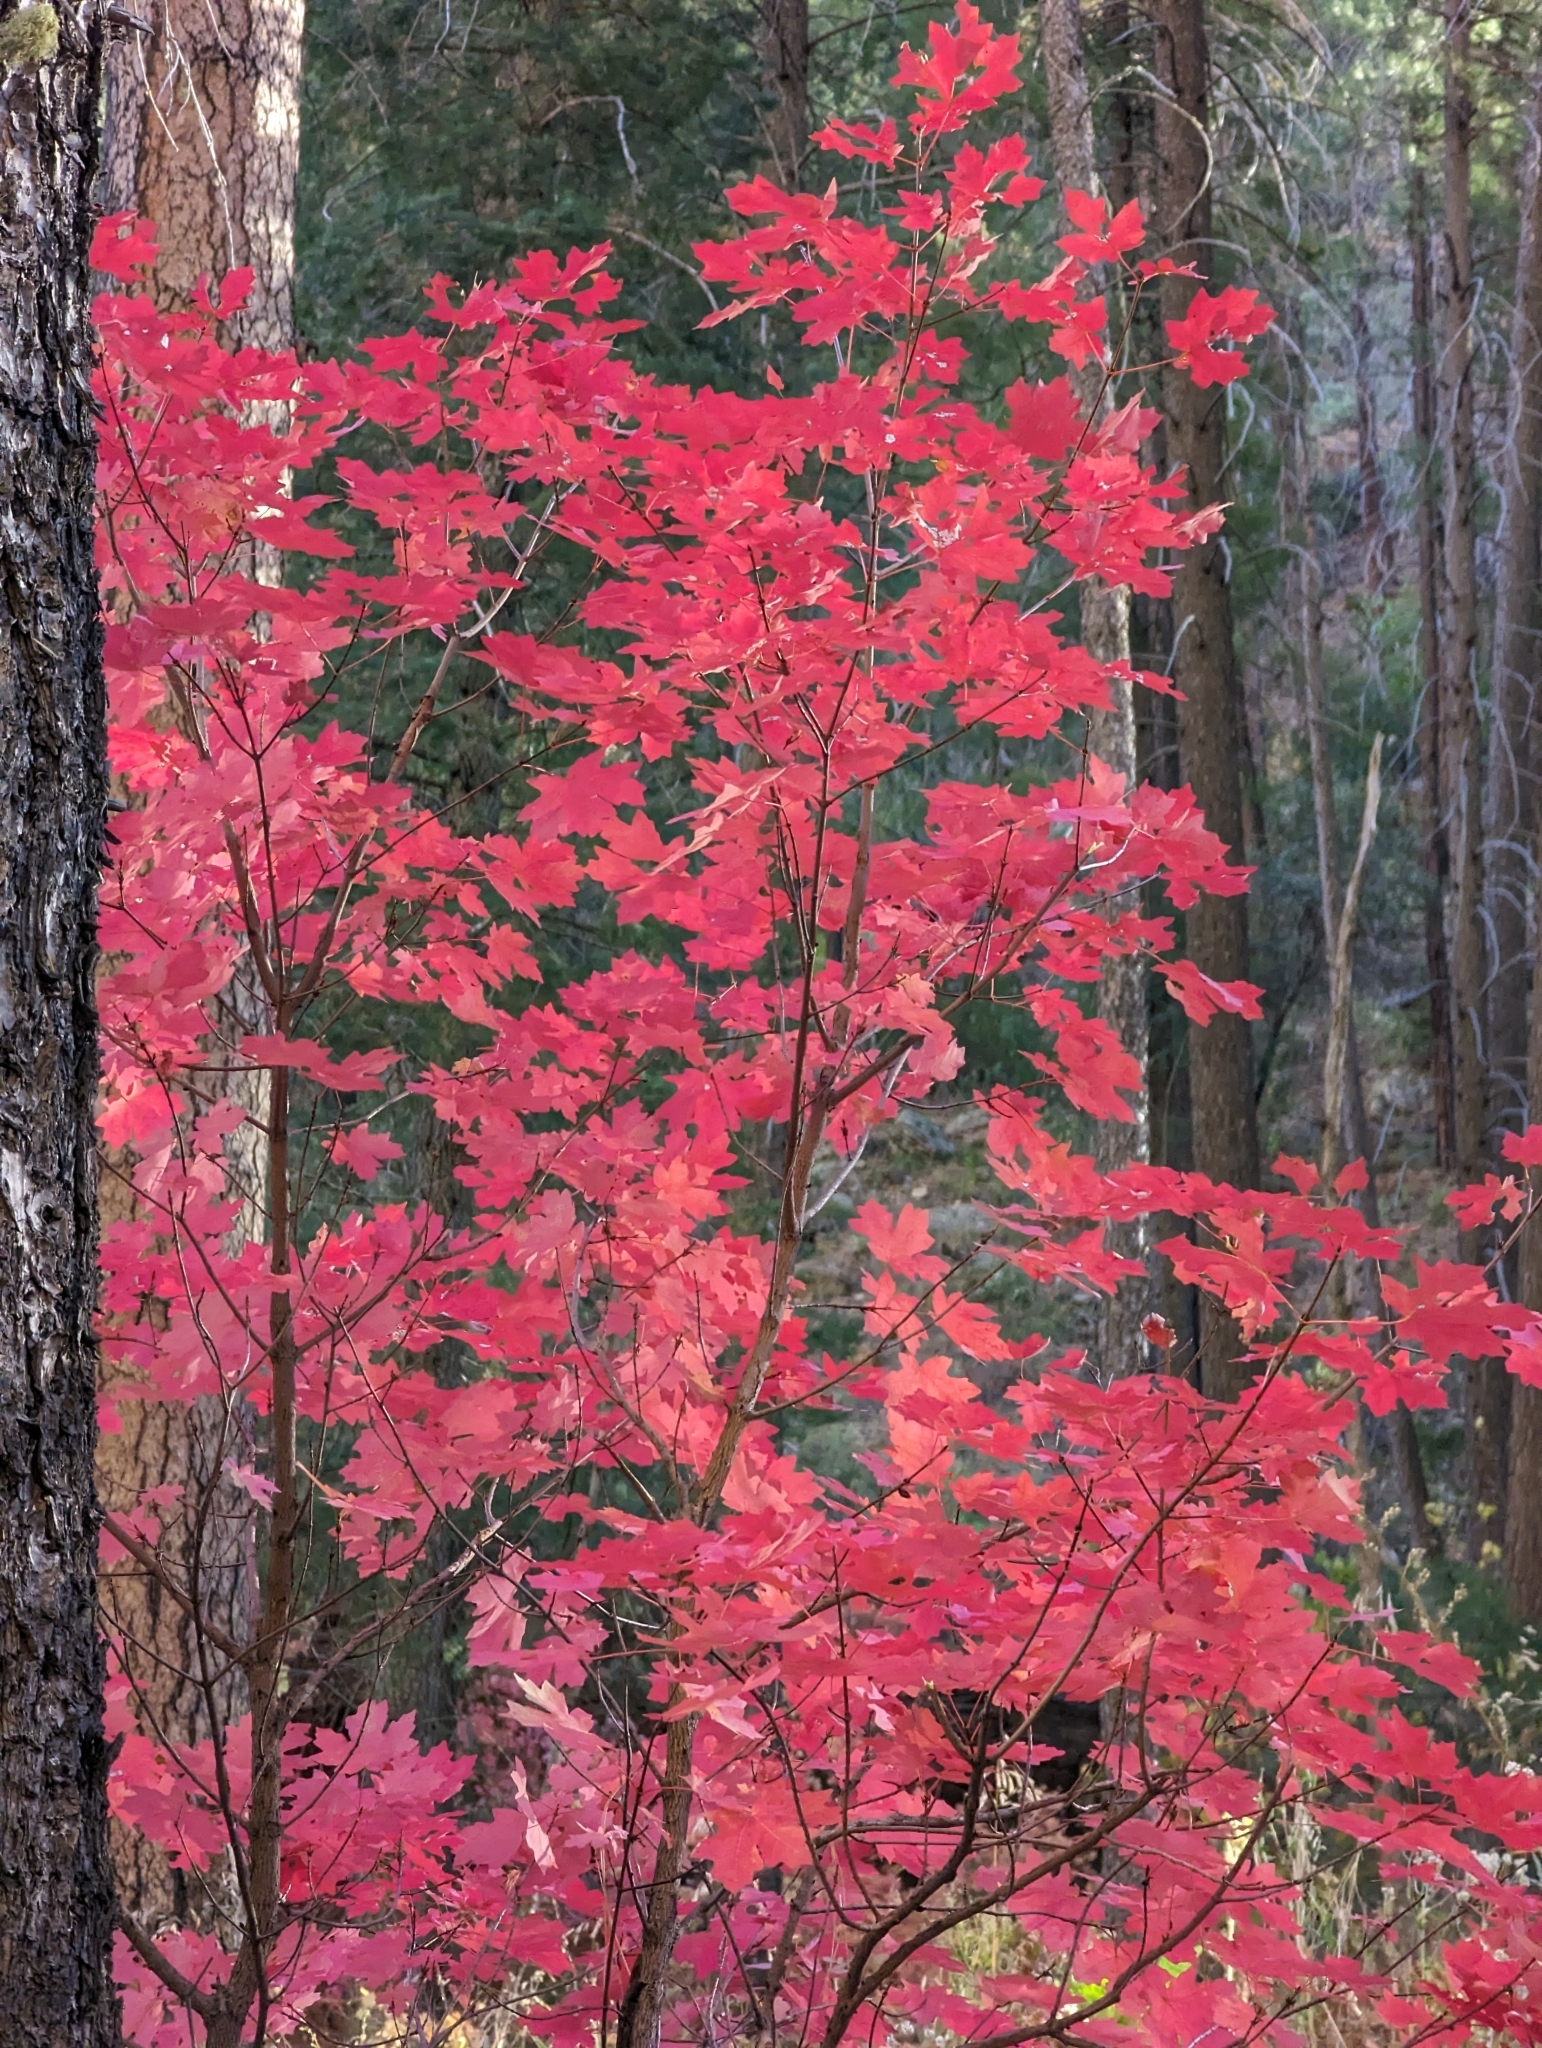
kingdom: Plantae
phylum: Tracheophyta
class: Magnoliopsida
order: Sapindales
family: Sapindaceae
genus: Acer
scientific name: Acer grandidentatum
